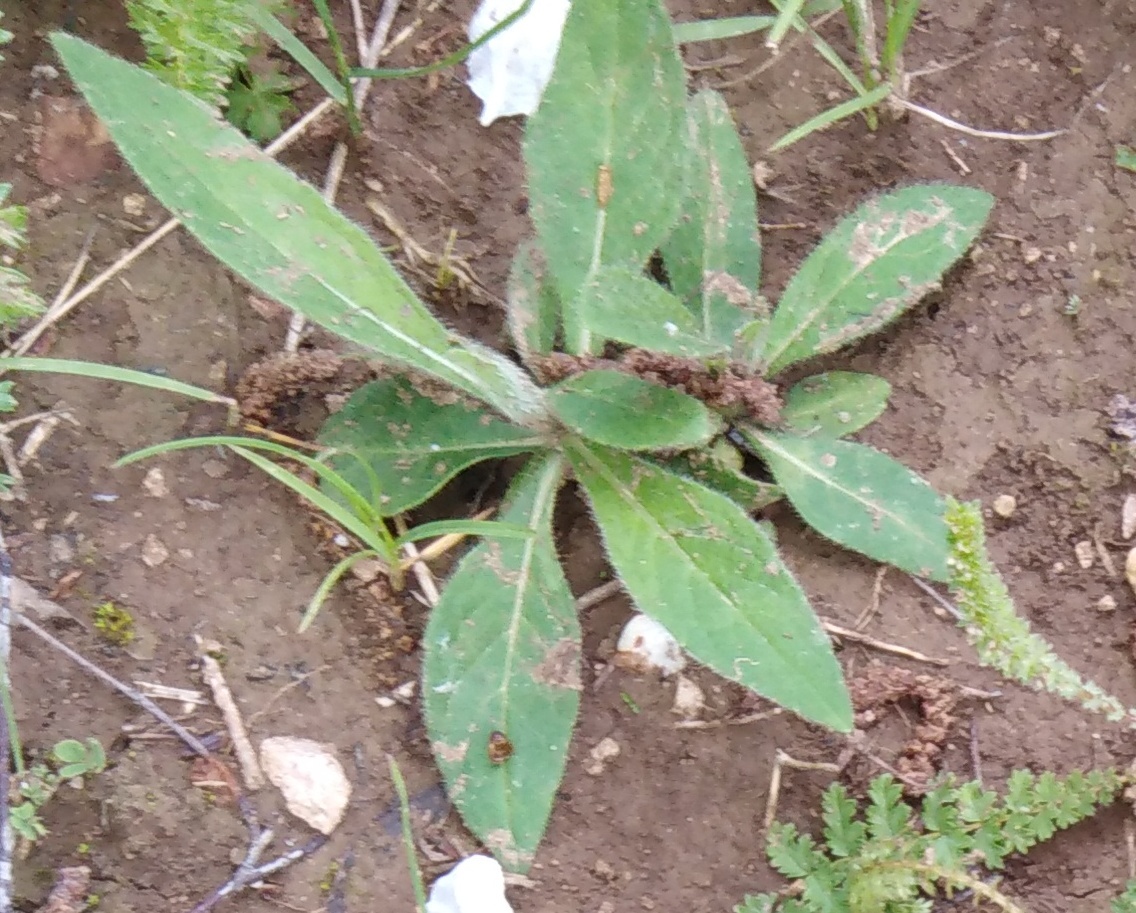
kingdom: Plantae
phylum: Tracheophyta
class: Magnoliopsida
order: Asterales
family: Asteraceae
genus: Pilosella
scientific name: Pilosella officinarum
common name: Mouse-ear hawkweed
